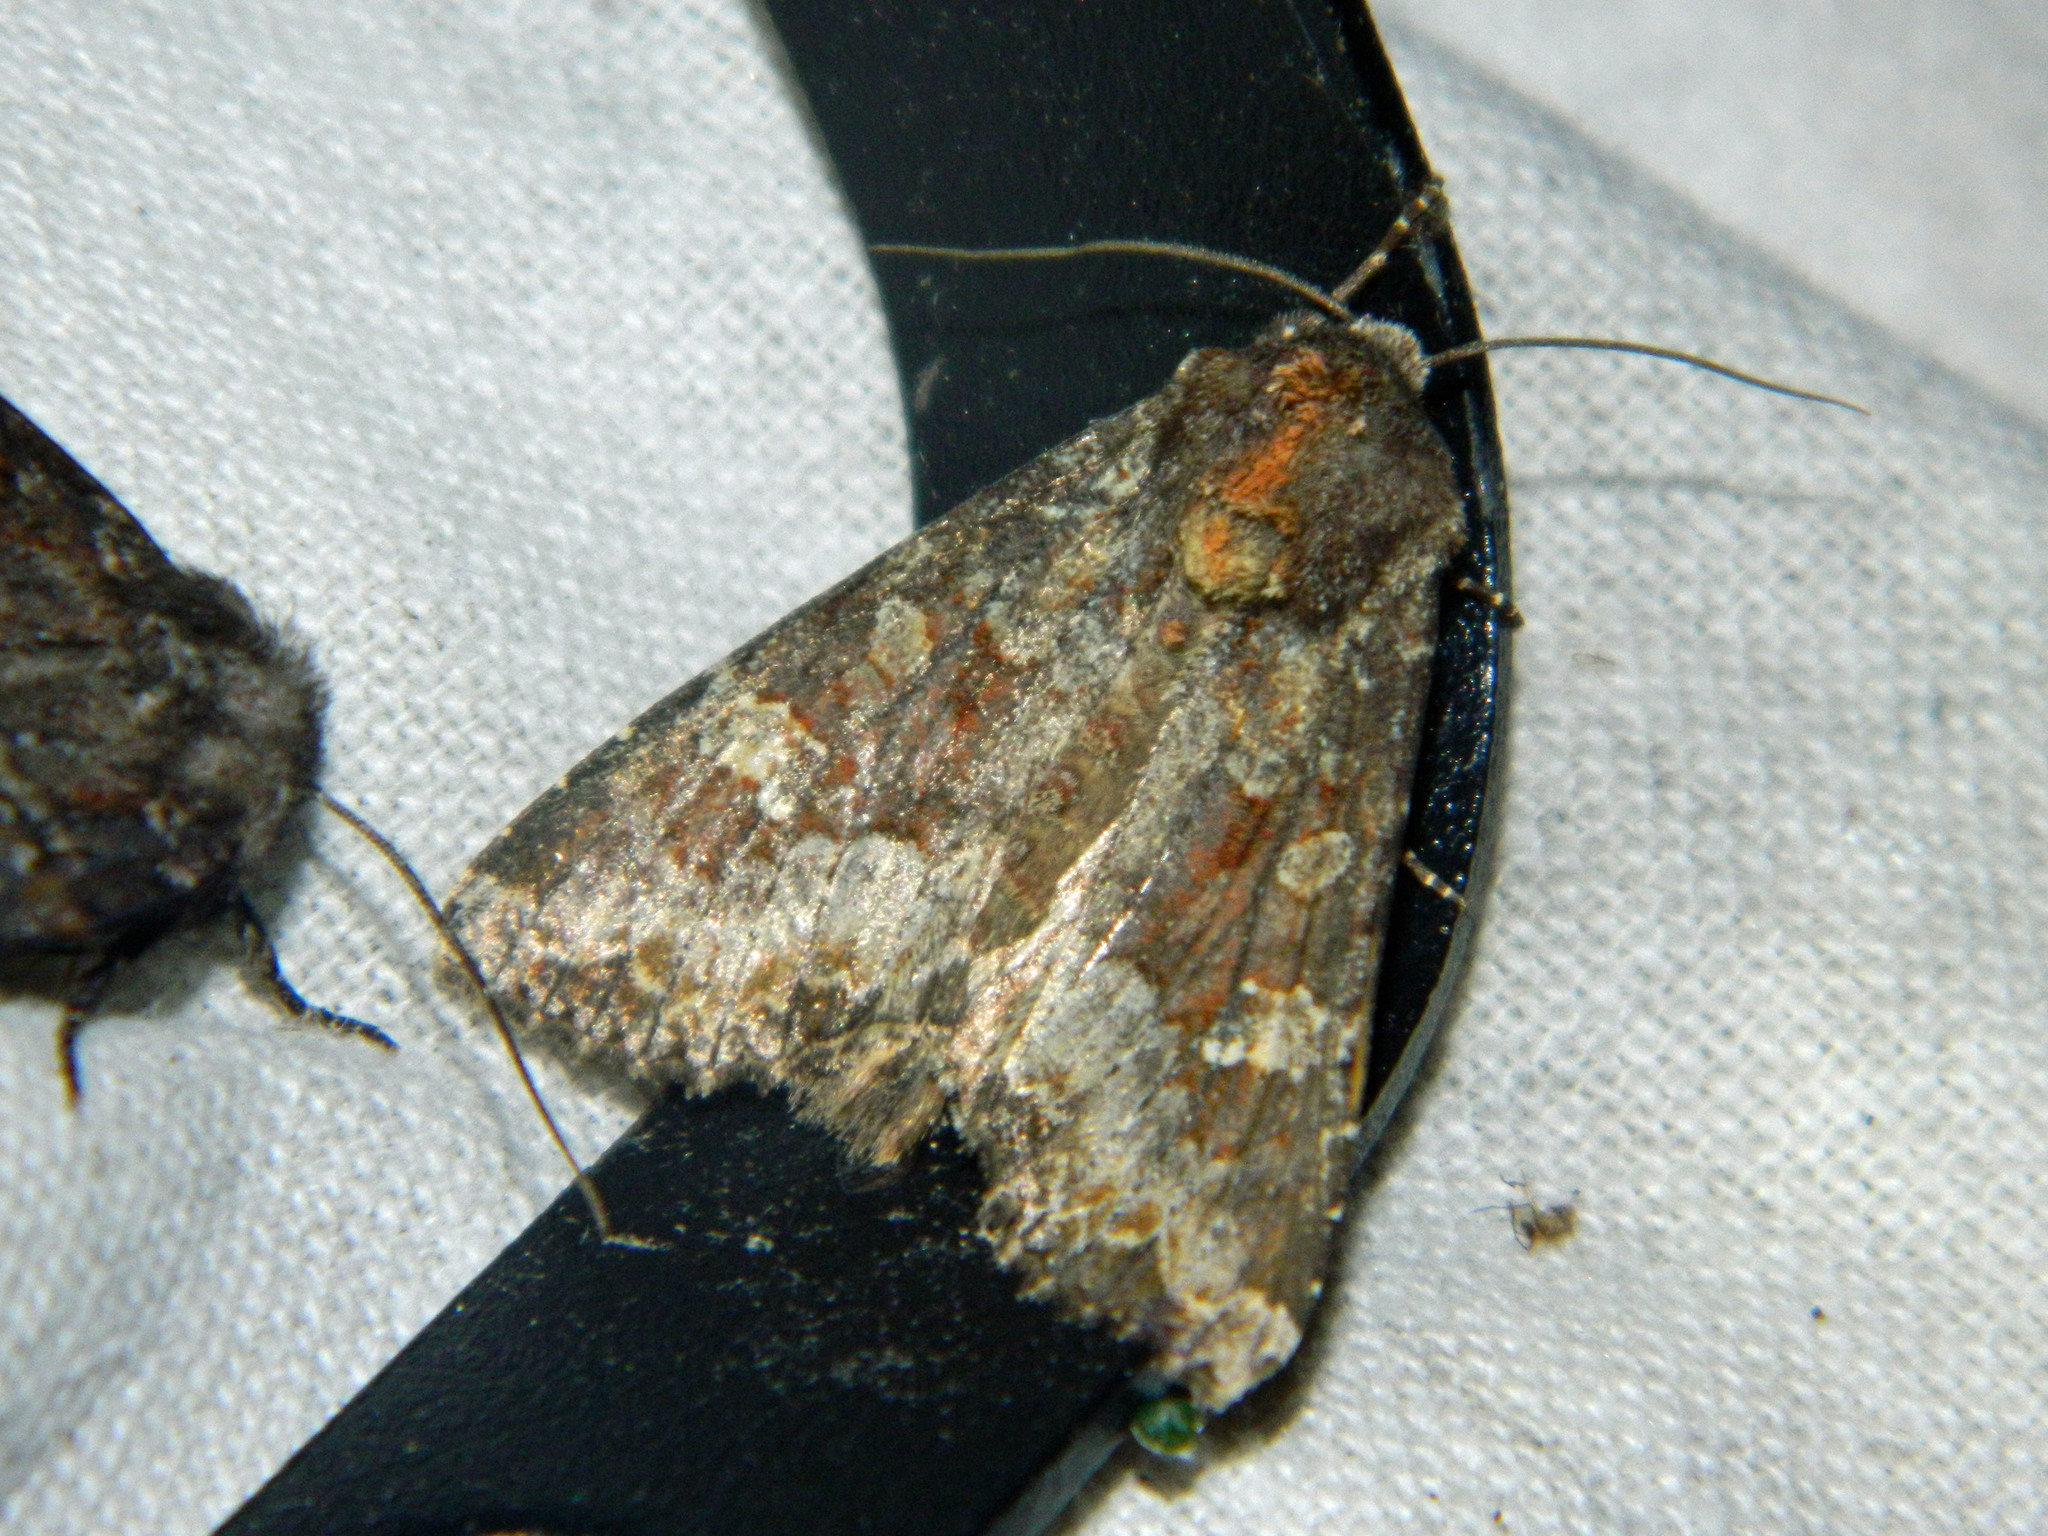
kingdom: Animalia
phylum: Arthropoda
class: Insecta
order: Lepidoptera
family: Noctuidae
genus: Apamea
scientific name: Apamea amputatrix
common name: Yellow-headed cutworm moth
